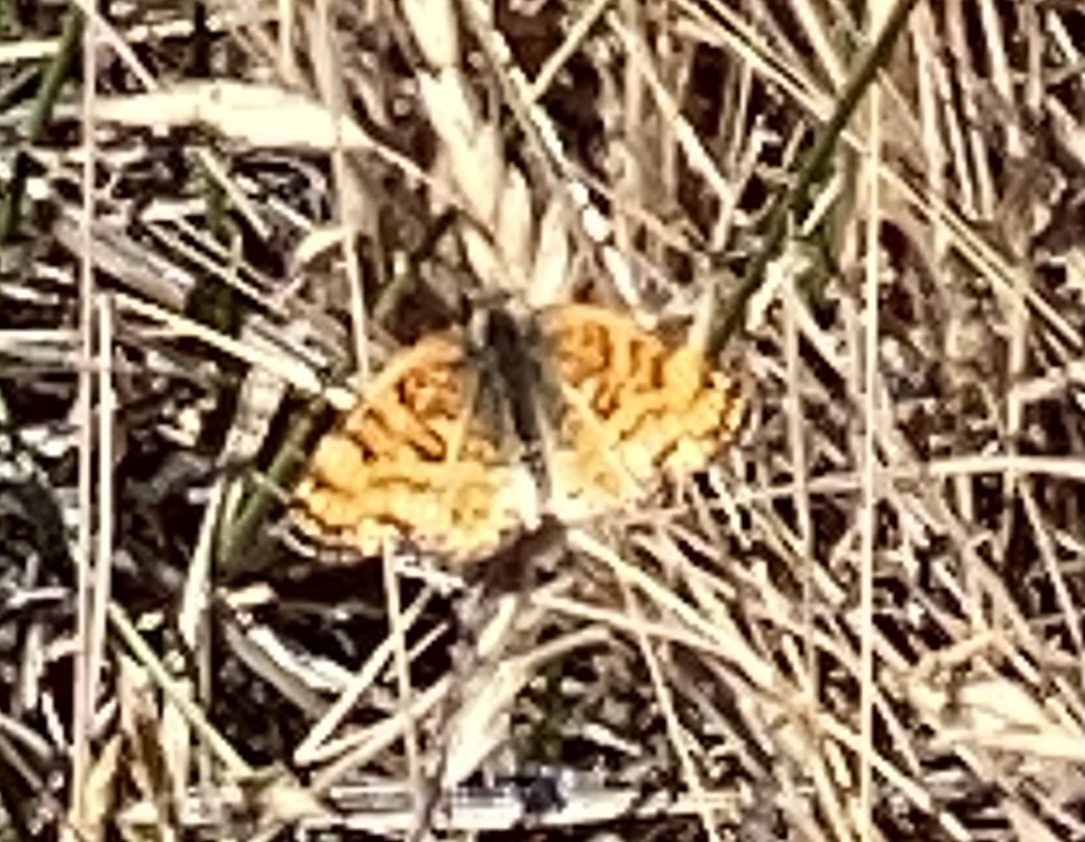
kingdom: Animalia
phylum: Arthropoda
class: Insecta
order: Lepidoptera
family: Nymphalidae
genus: Eresia
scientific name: Eresia aveyrona
